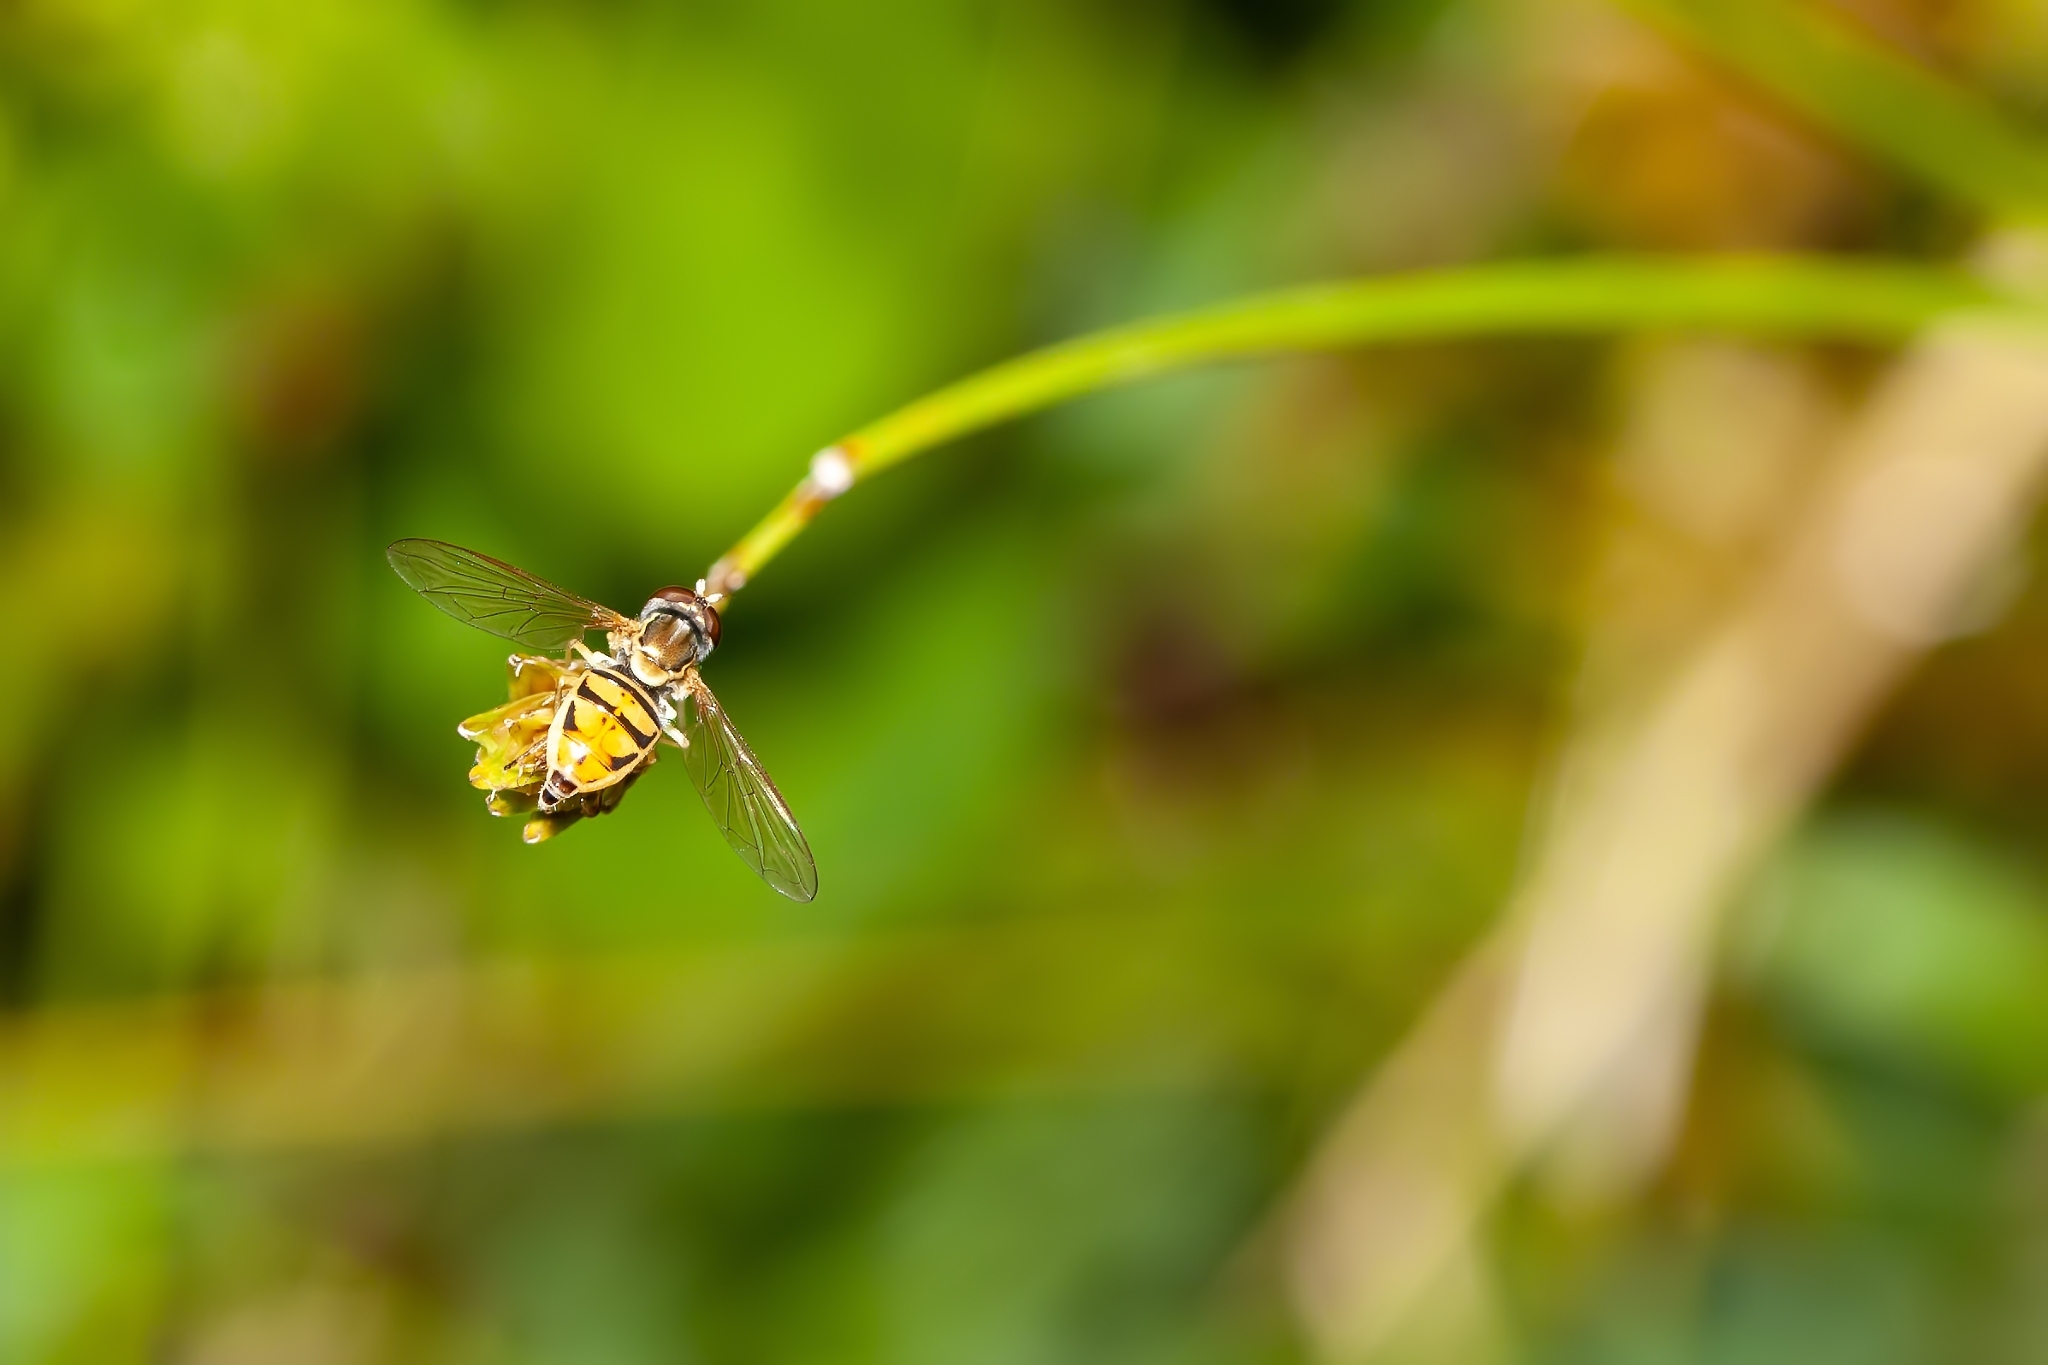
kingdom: Animalia
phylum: Arthropoda
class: Insecta
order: Diptera
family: Syrphidae
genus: Toxomerus
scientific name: Toxomerus marginatus
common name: Syrphid fly
